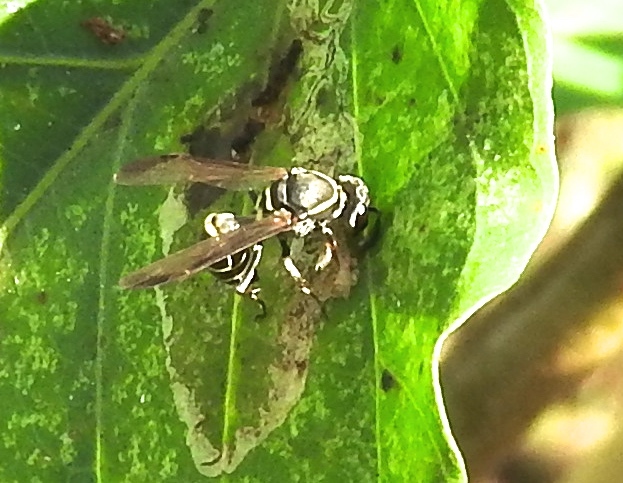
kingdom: Animalia
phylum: Arthropoda
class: Insecta
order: Hymenoptera
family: Vespidae
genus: Myrapetra
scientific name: Myrapetra
